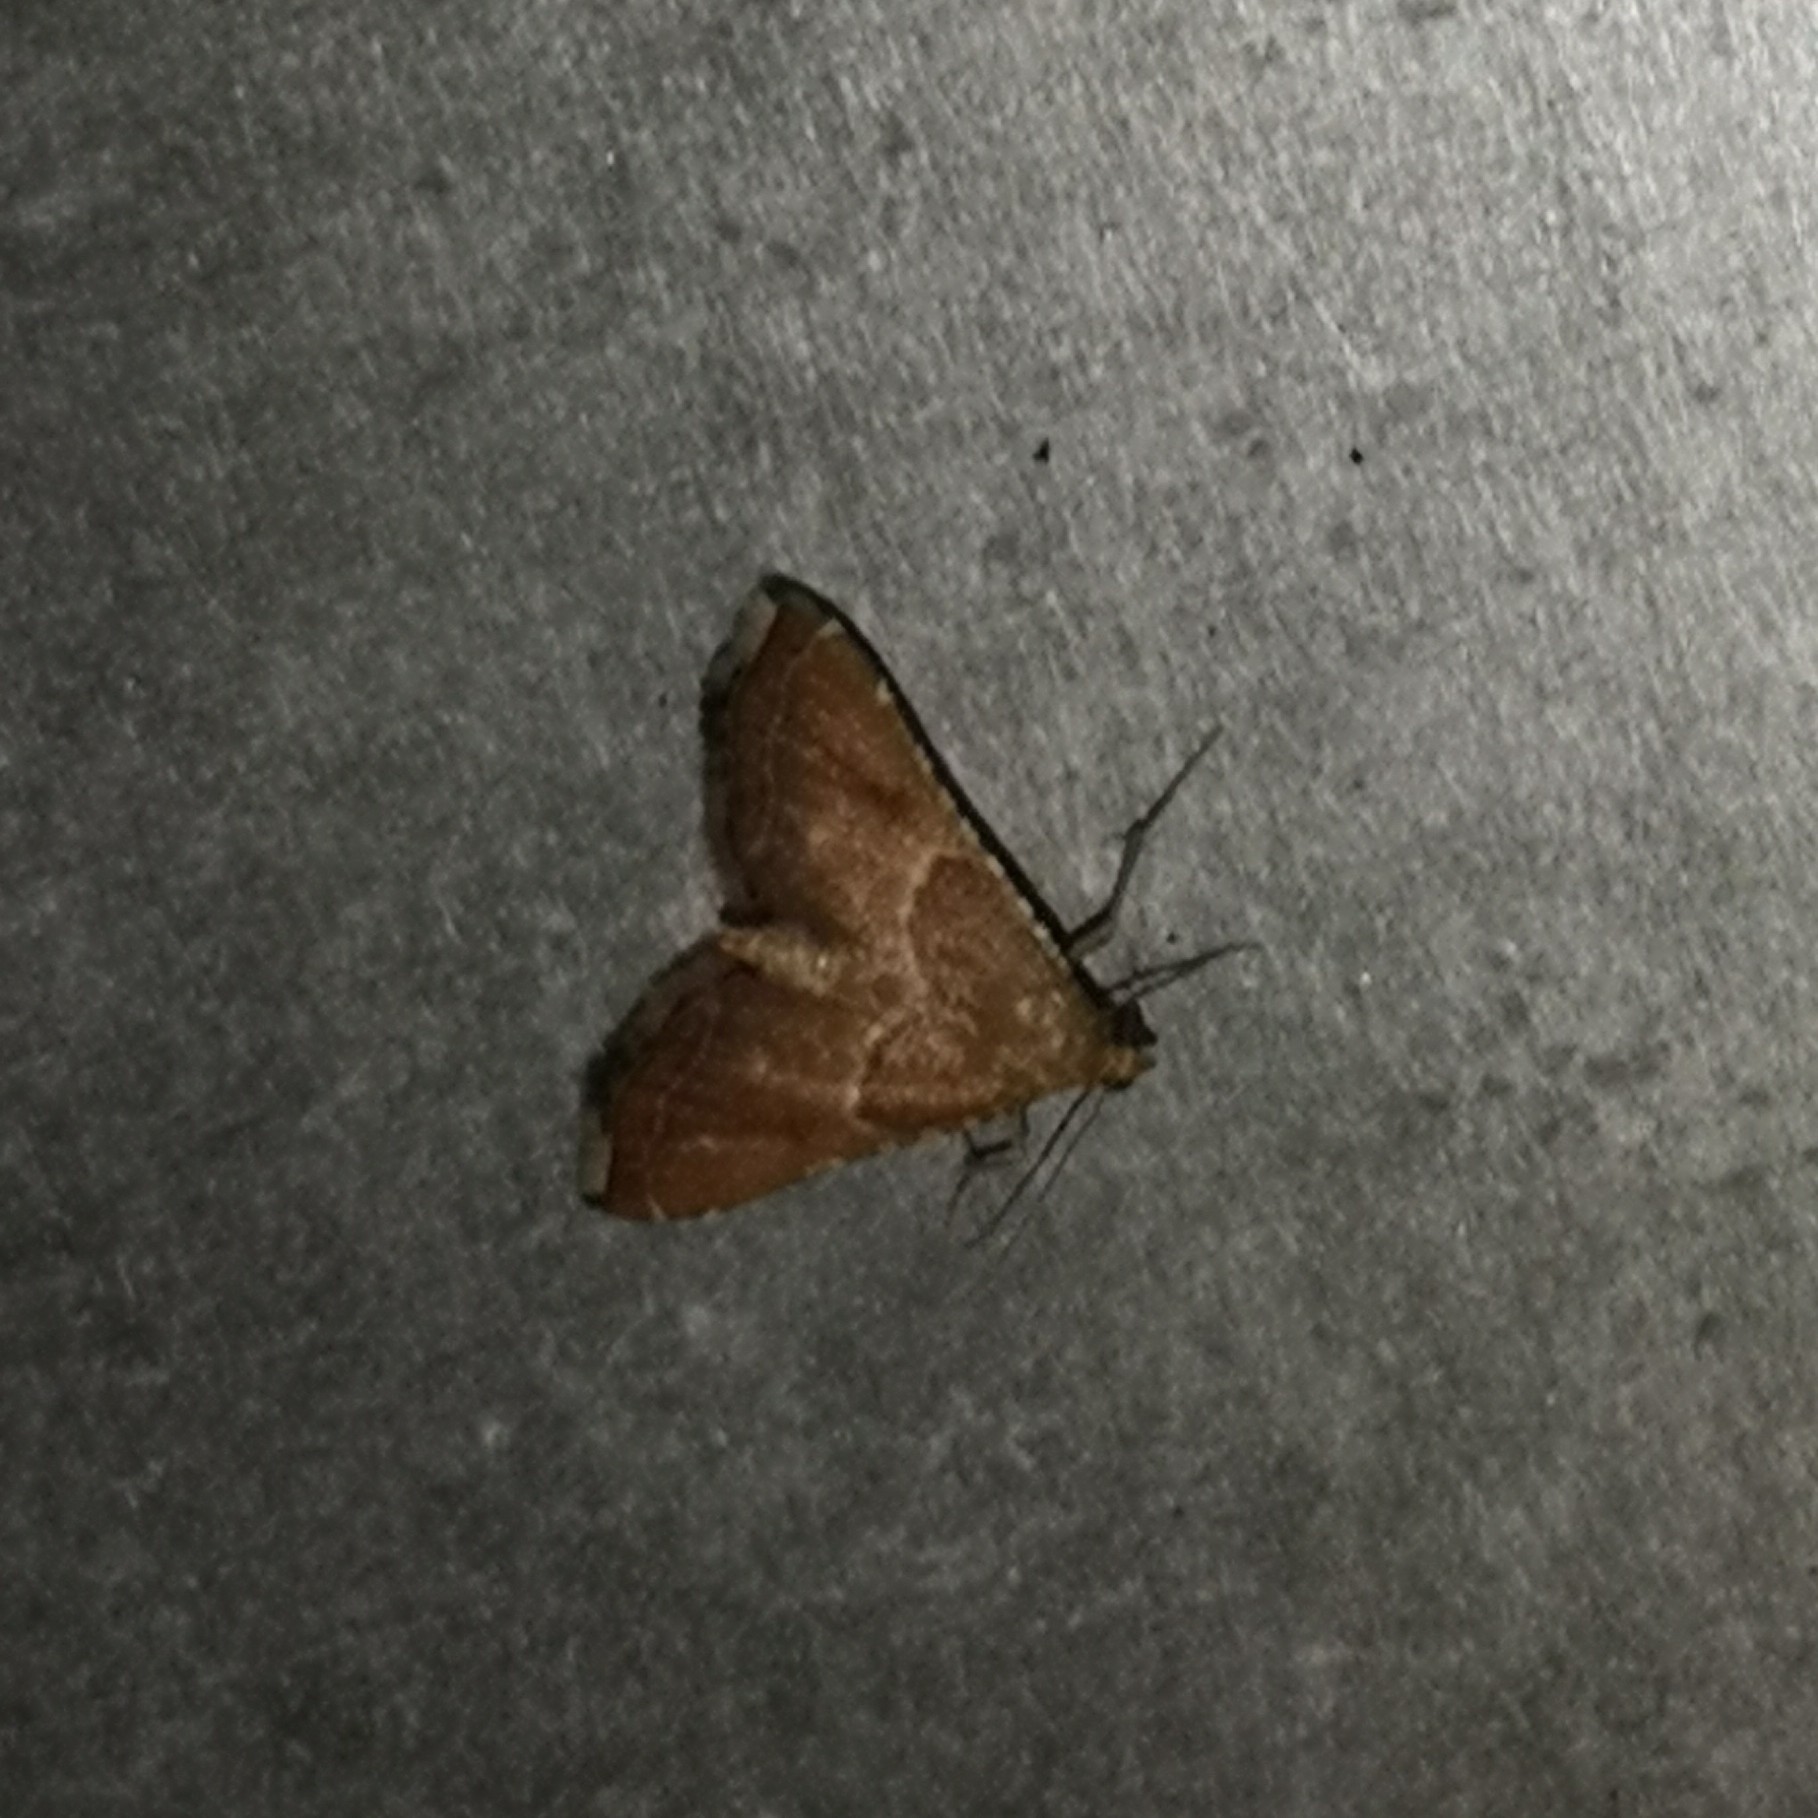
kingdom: Animalia
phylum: Arthropoda
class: Insecta
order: Lepidoptera
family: Pyralidae
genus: Endotricha
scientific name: Endotricha flammealis
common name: Rosy tabby
